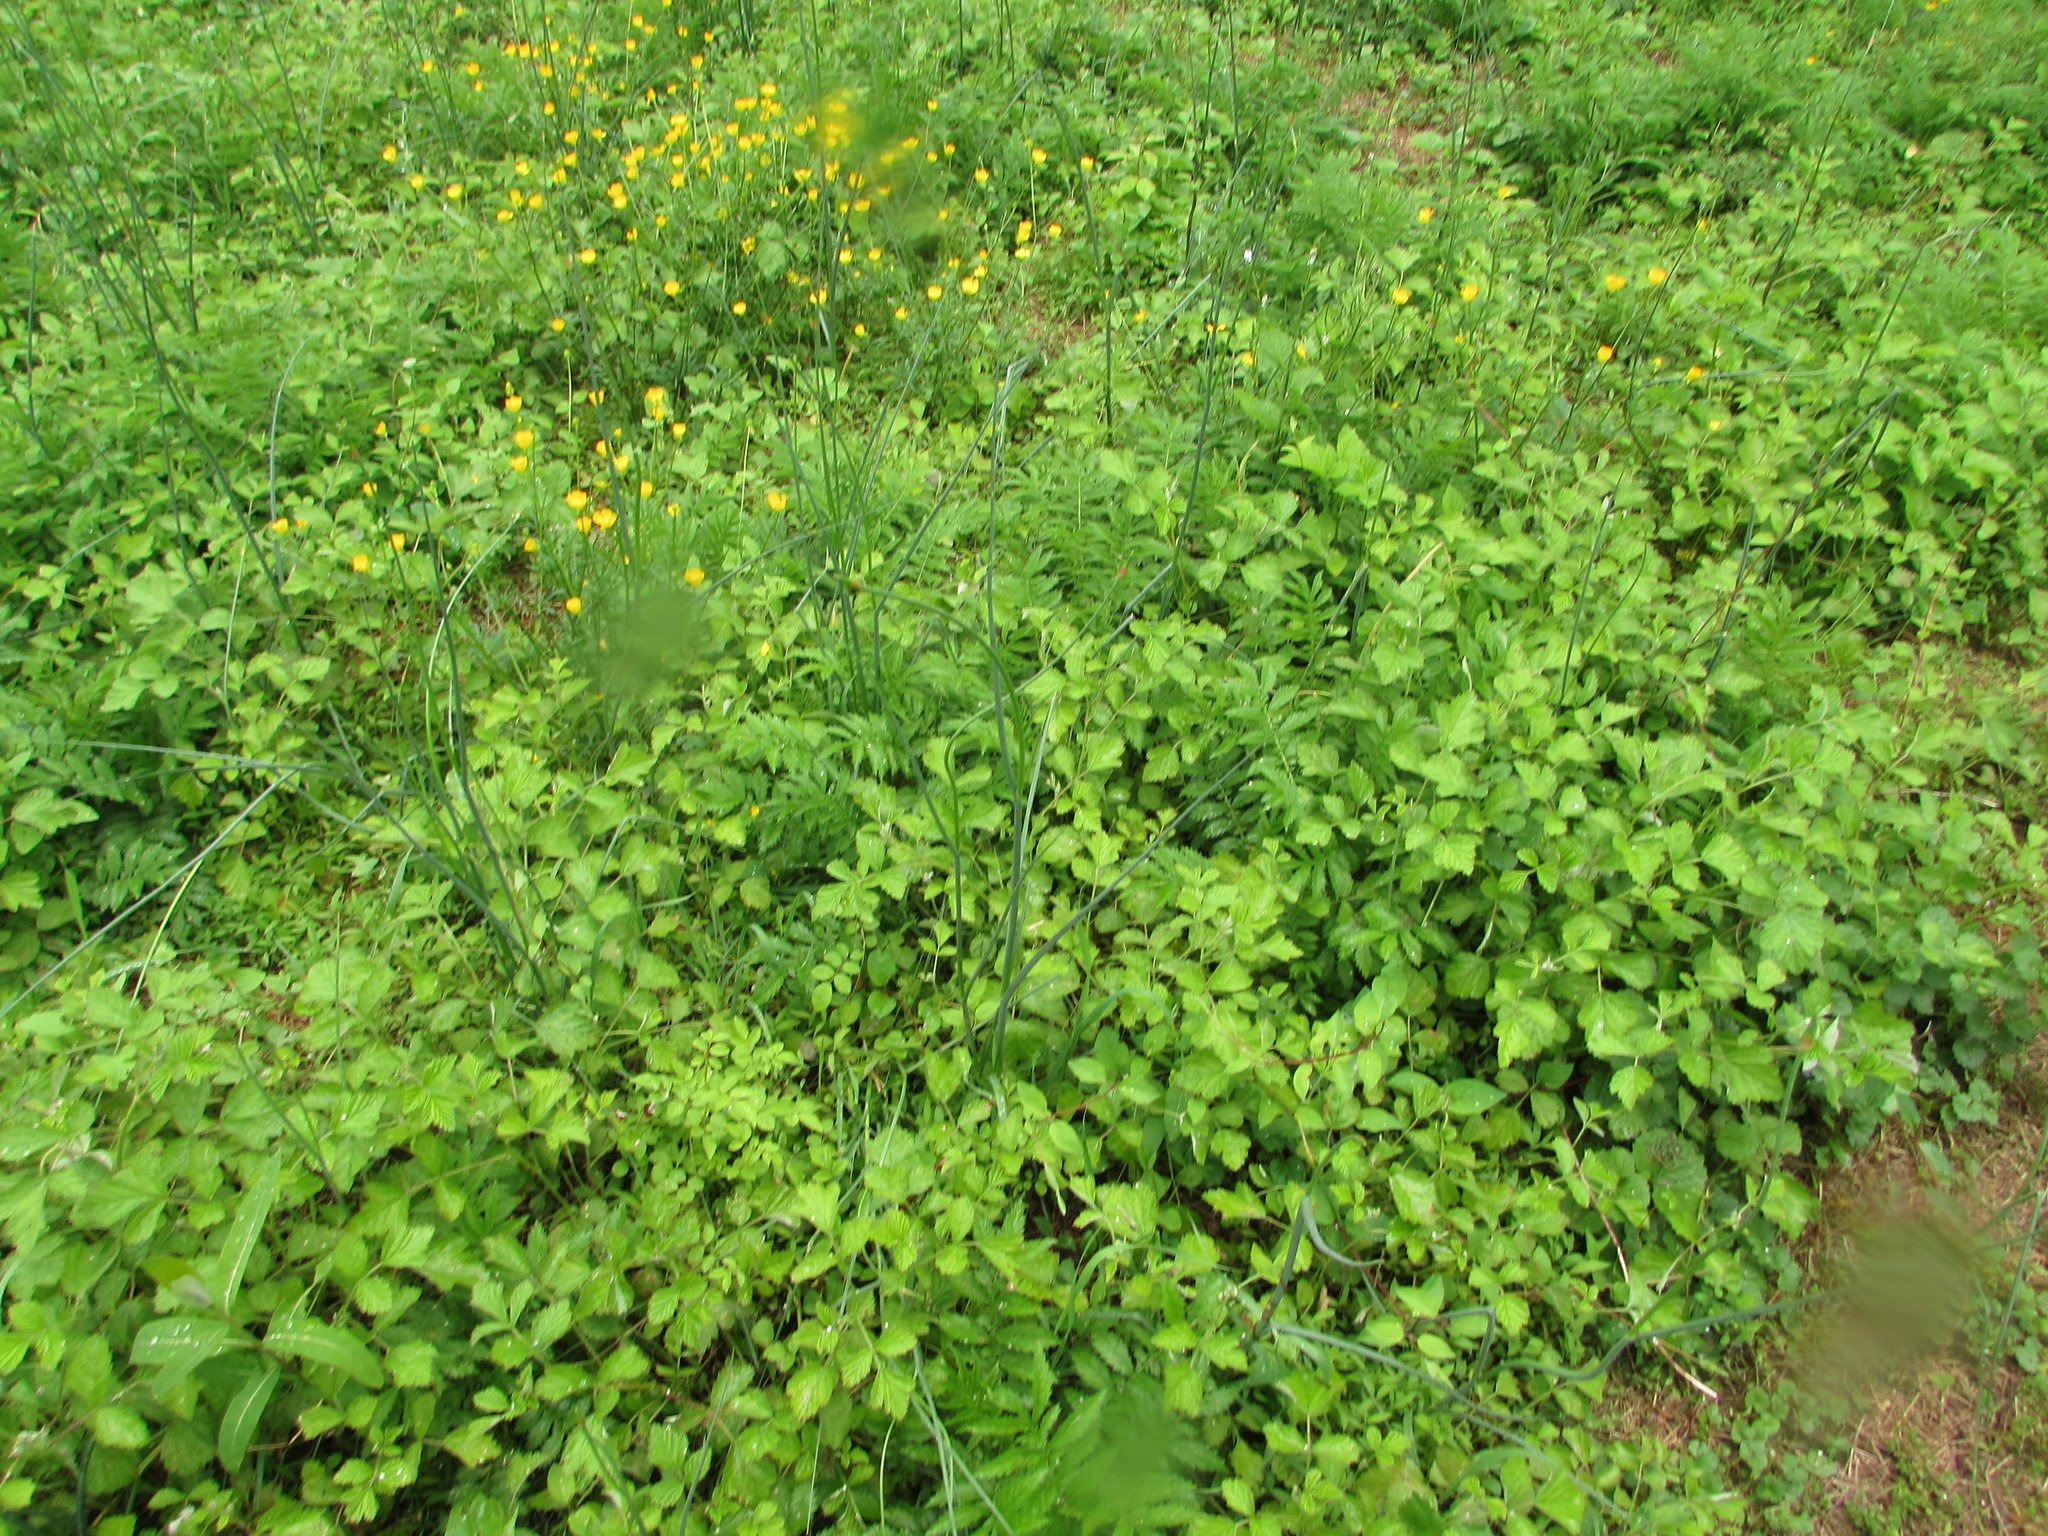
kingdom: Plantae
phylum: Tracheophyta
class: Liliopsida
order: Asparagales
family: Amaryllidaceae
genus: Allium
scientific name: Allium vineale
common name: Crow garlic
